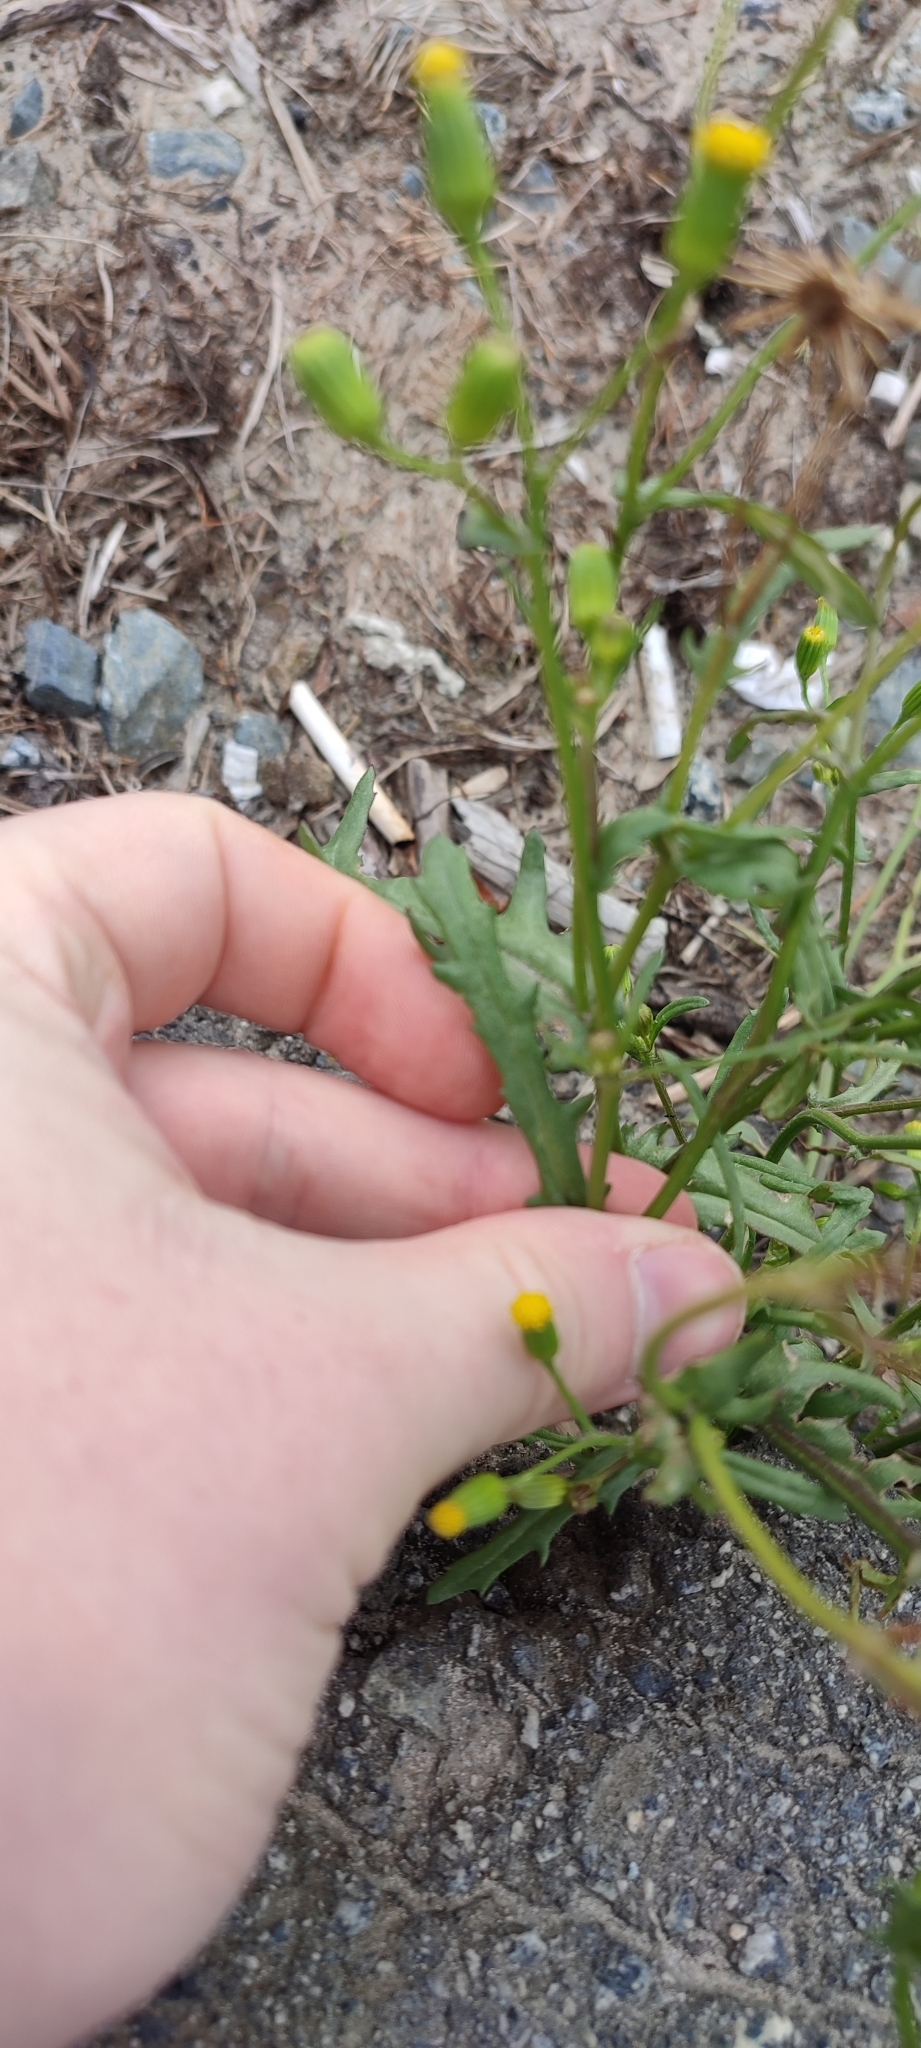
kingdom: Plantae
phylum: Tracheophyta
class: Magnoliopsida
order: Asterales
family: Asteraceae
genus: Senecio
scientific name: Senecio dubitabilis
